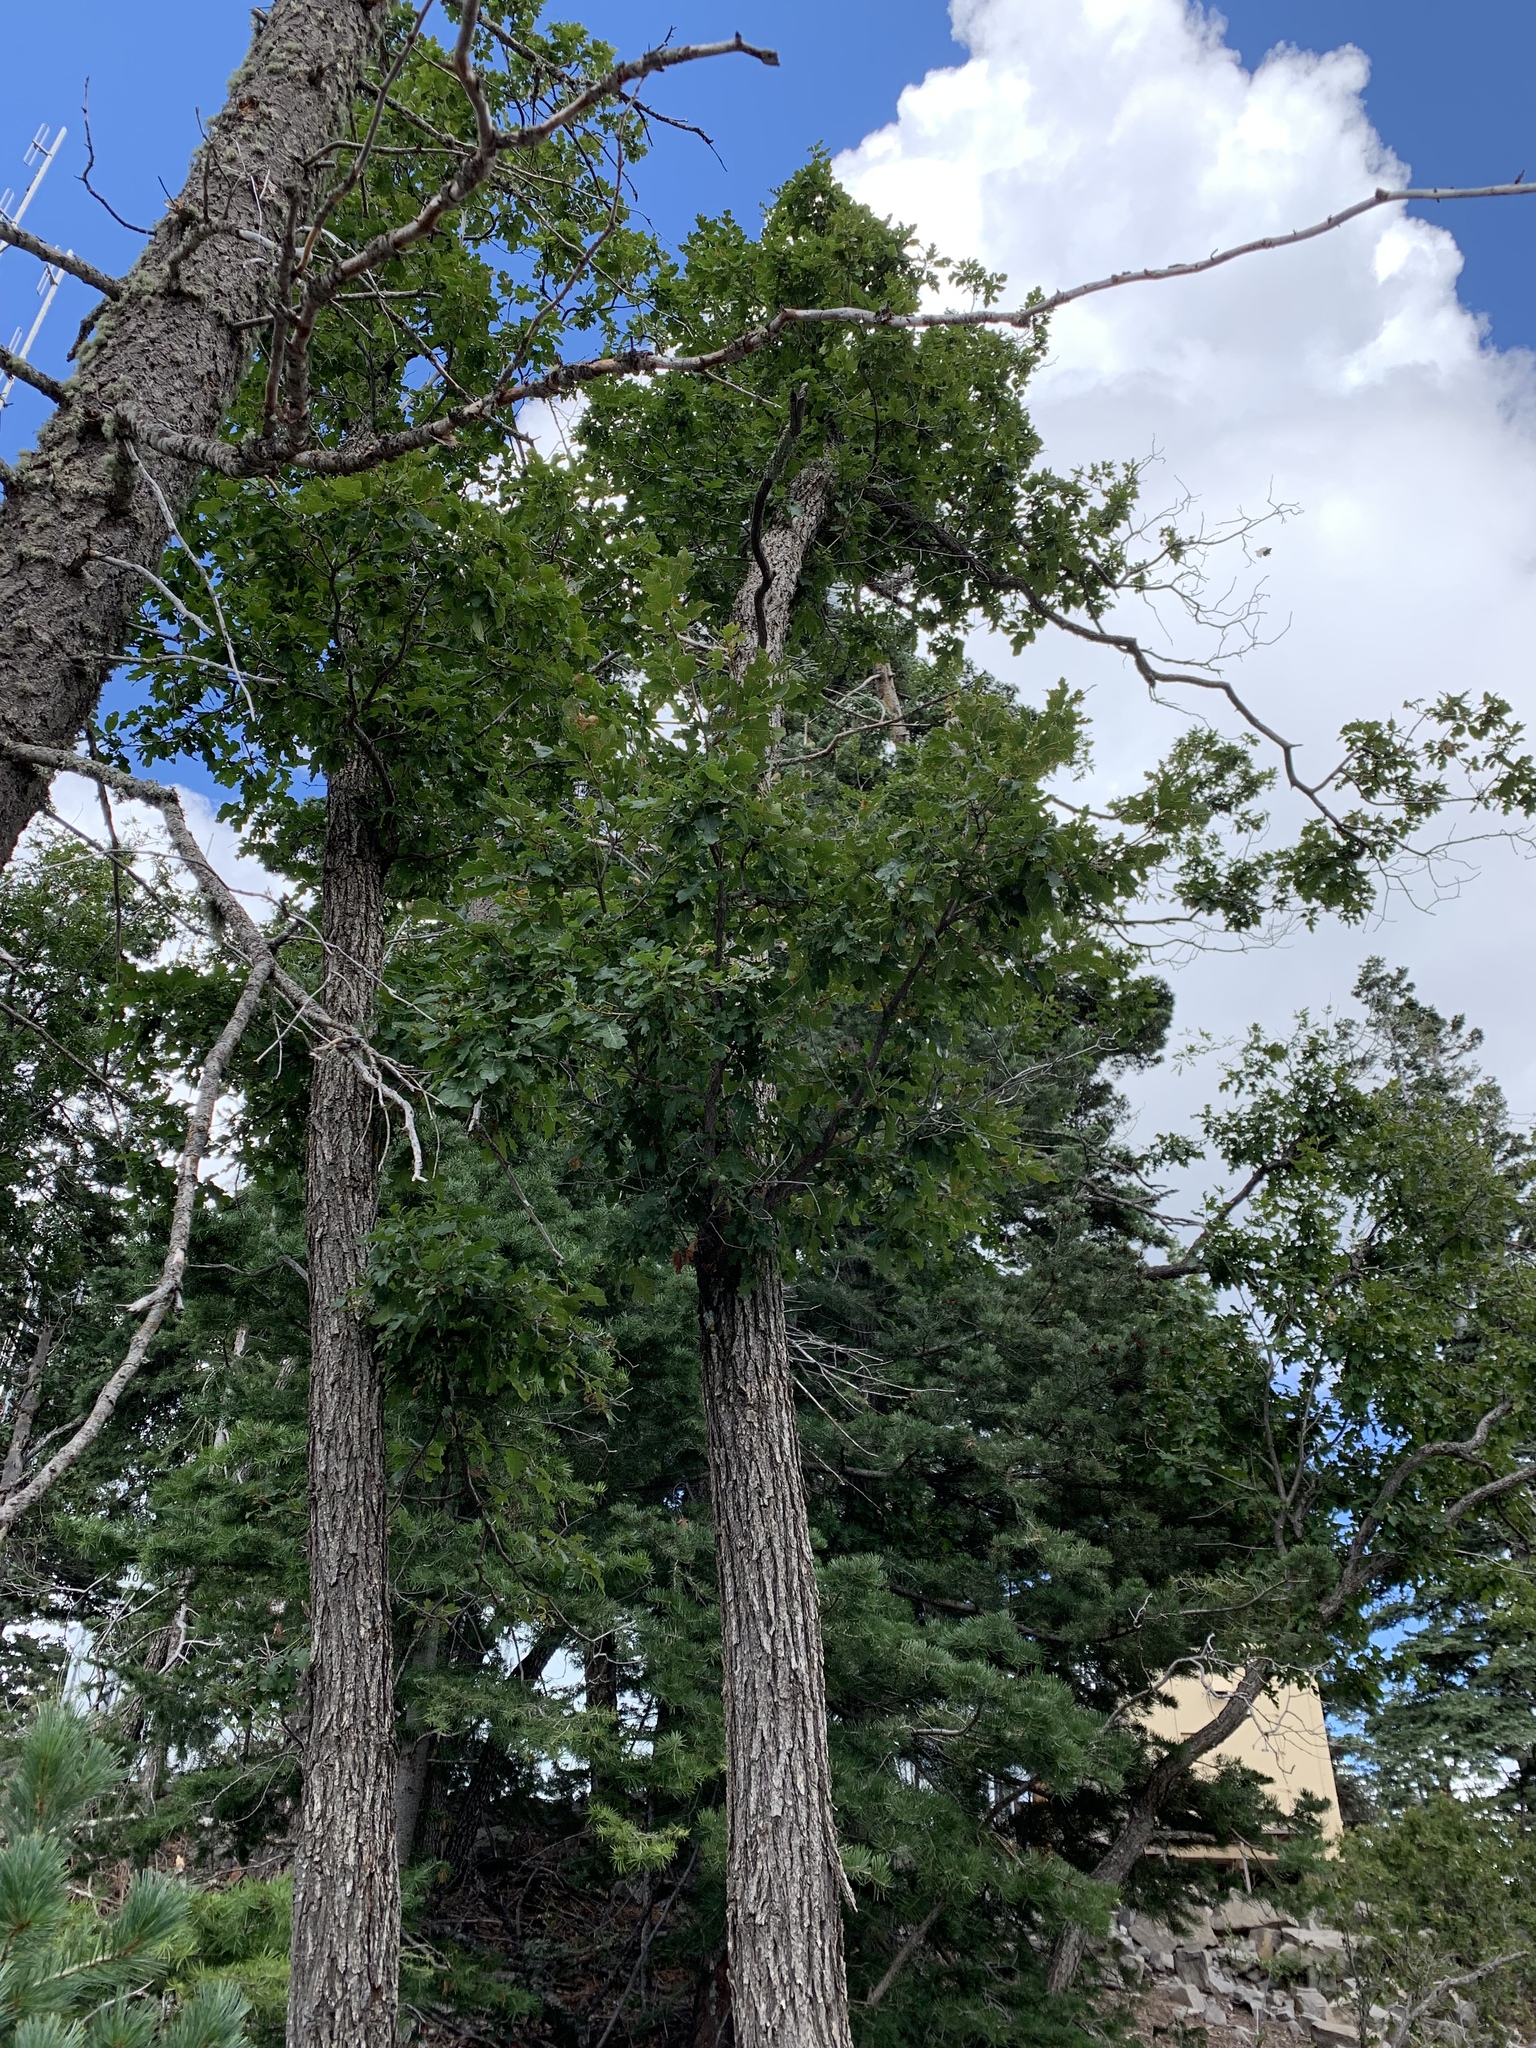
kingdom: Plantae
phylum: Tracheophyta
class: Magnoliopsida
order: Fagales
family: Fagaceae
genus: Quercus
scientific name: Quercus gambelii
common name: Gambel oak
